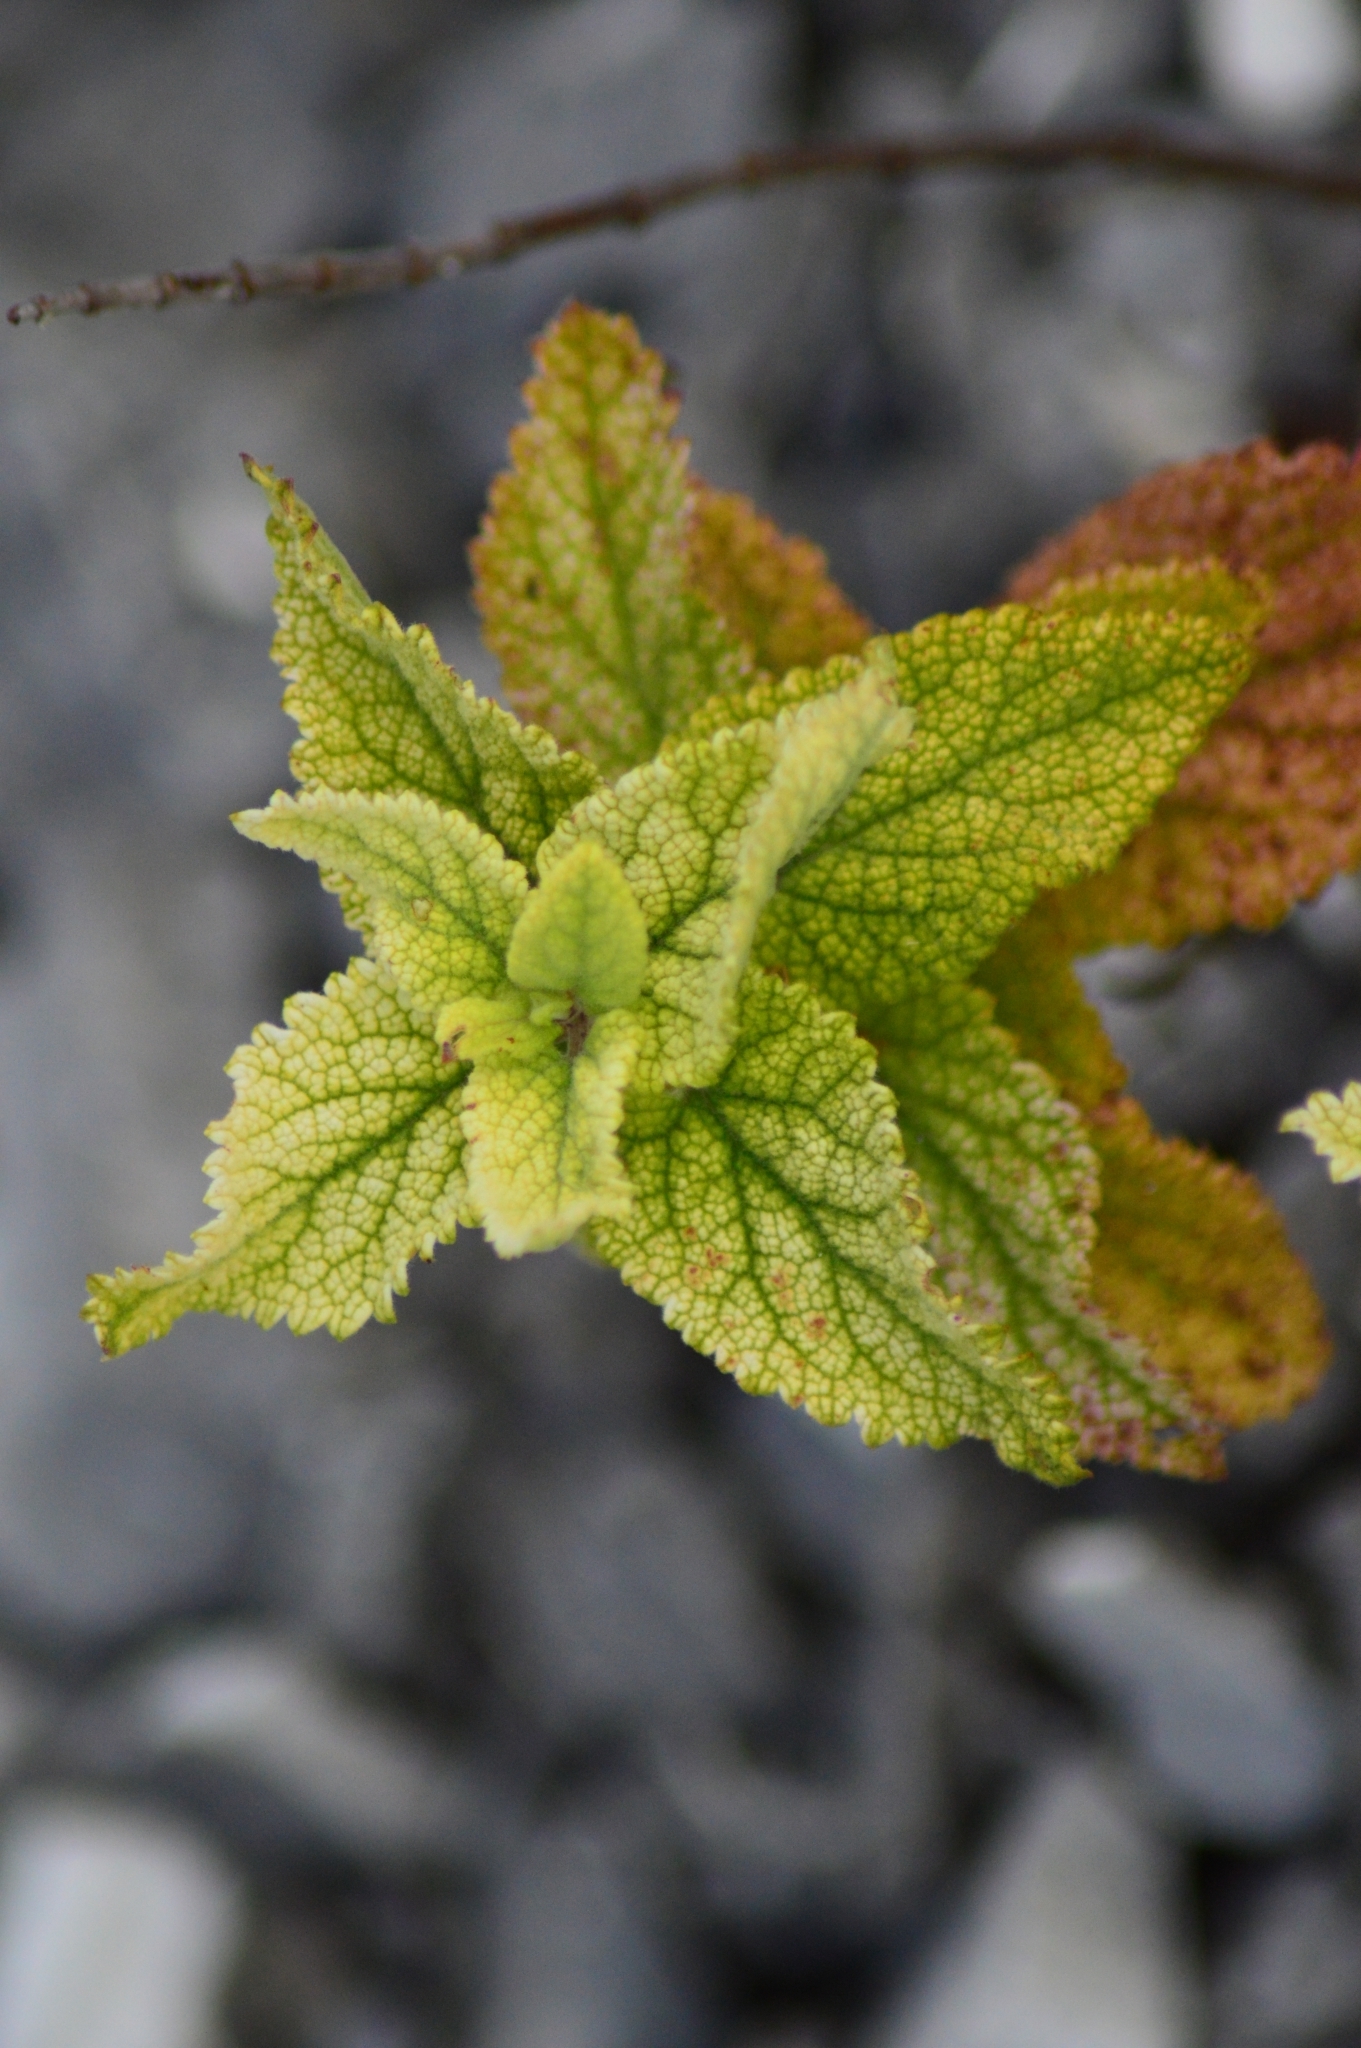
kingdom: Plantae
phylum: Tracheophyta
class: Magnoliopsida
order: Lamiales
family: Lamiaceae
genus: Teucrium
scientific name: Teucrium scorodonia
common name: Woodland germander
